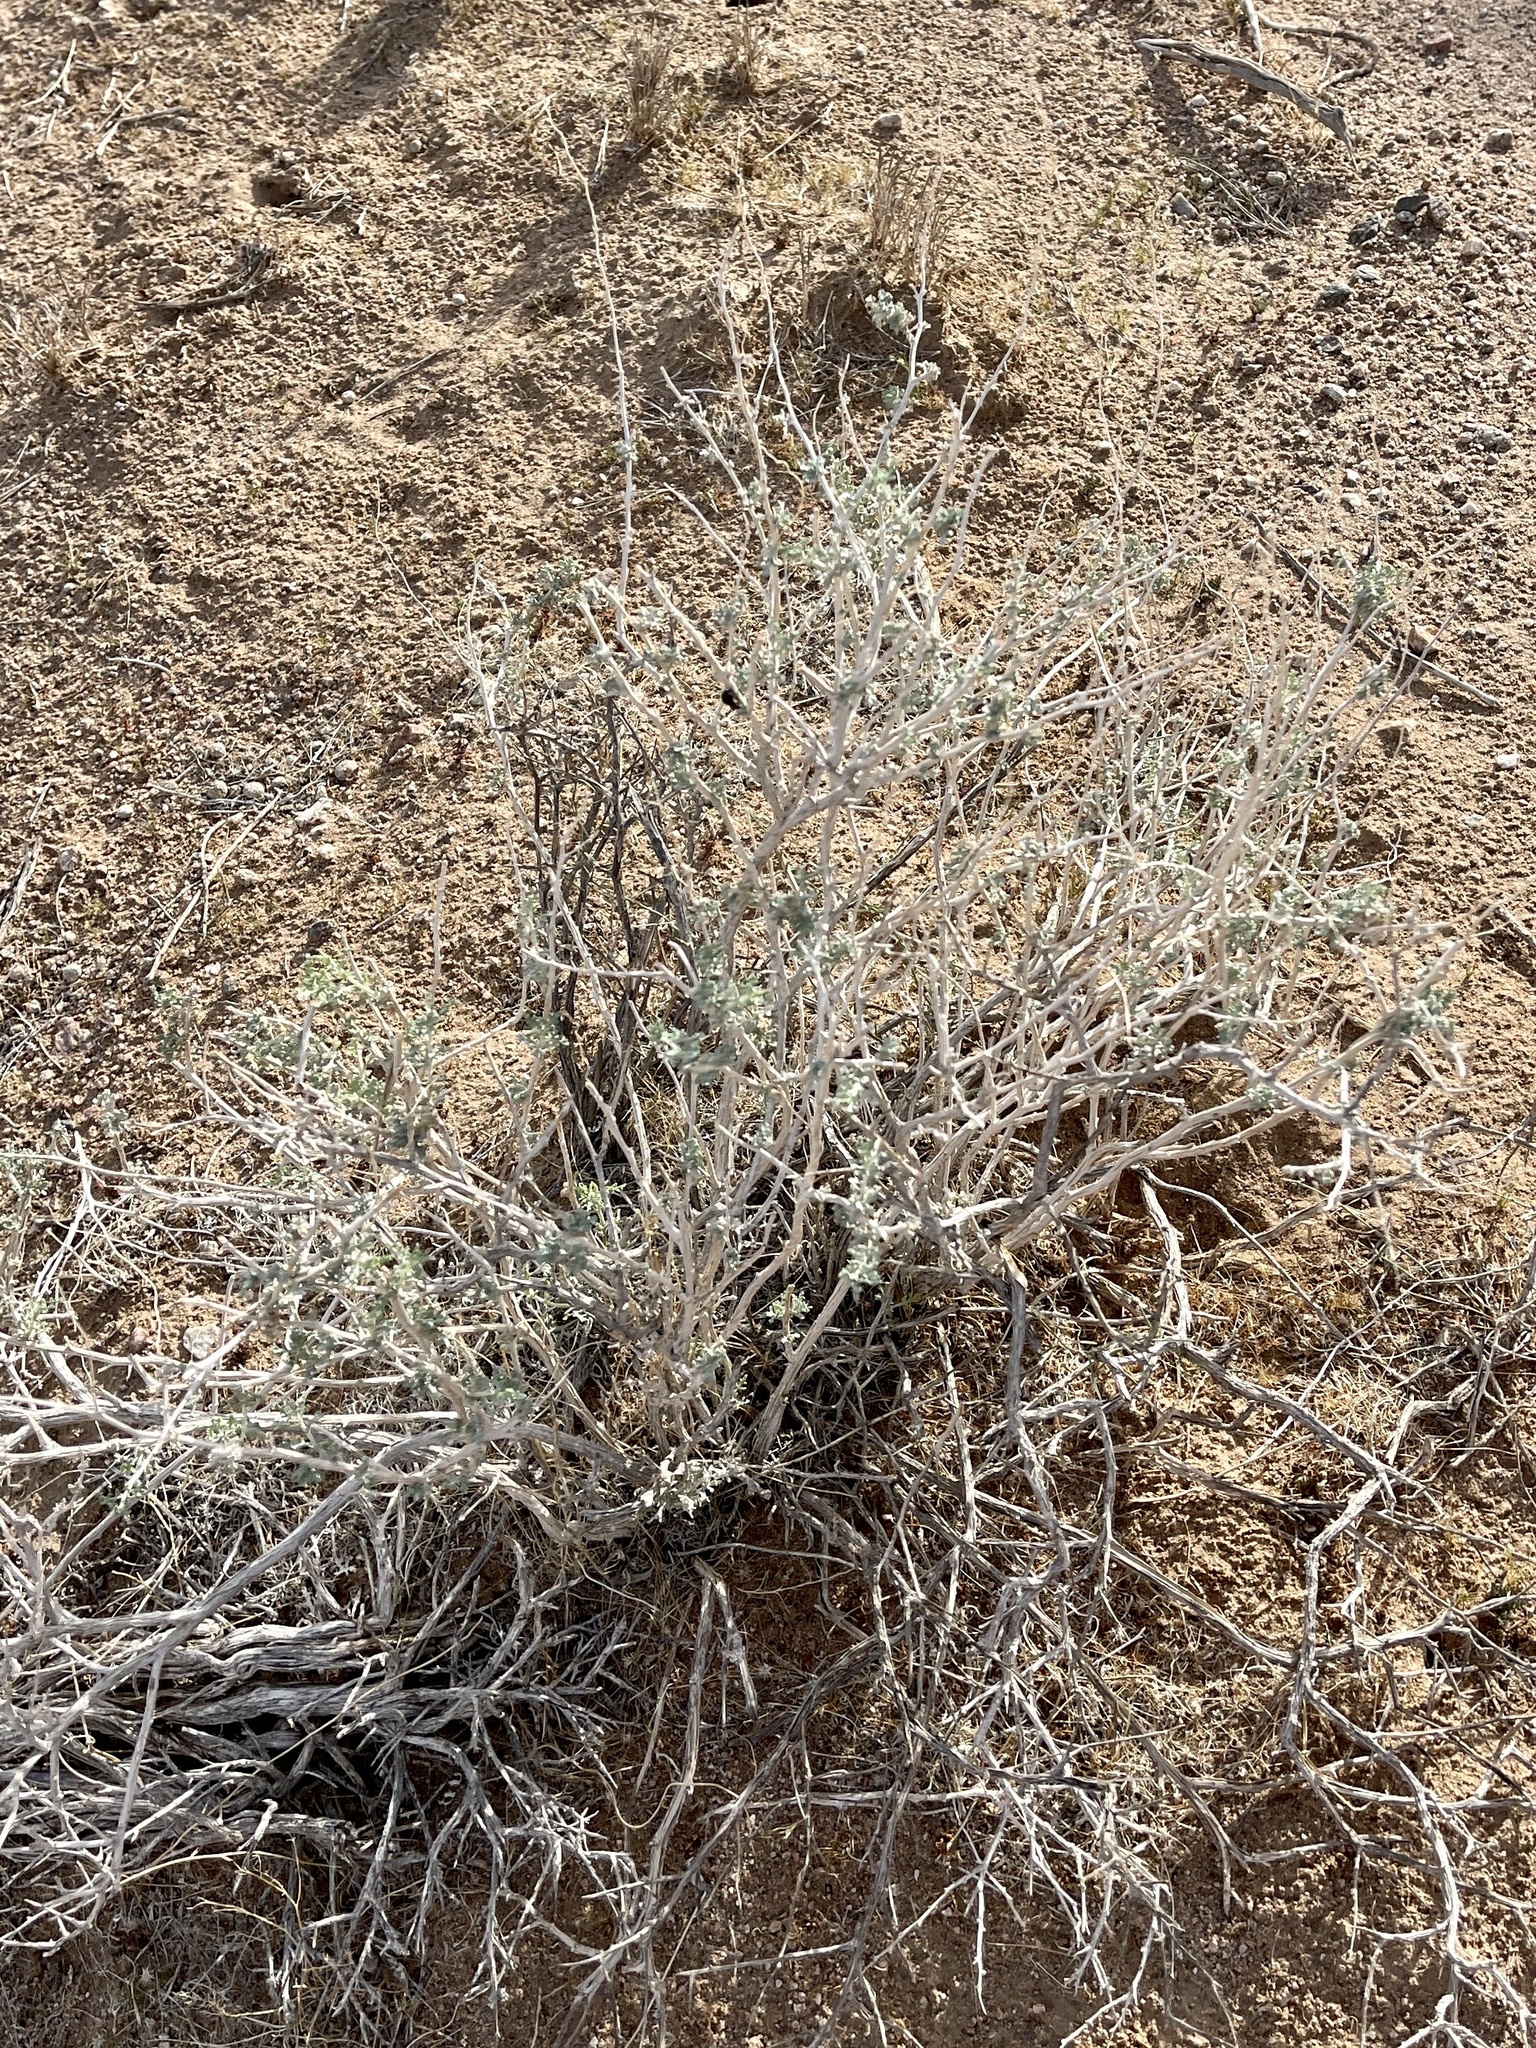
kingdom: Plantae
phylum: Tracheophyta
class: Magnoliopsida
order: Asterales
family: Asteraceae
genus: Ambrosia
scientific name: Ambrosia dumosa
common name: Bur-sage
